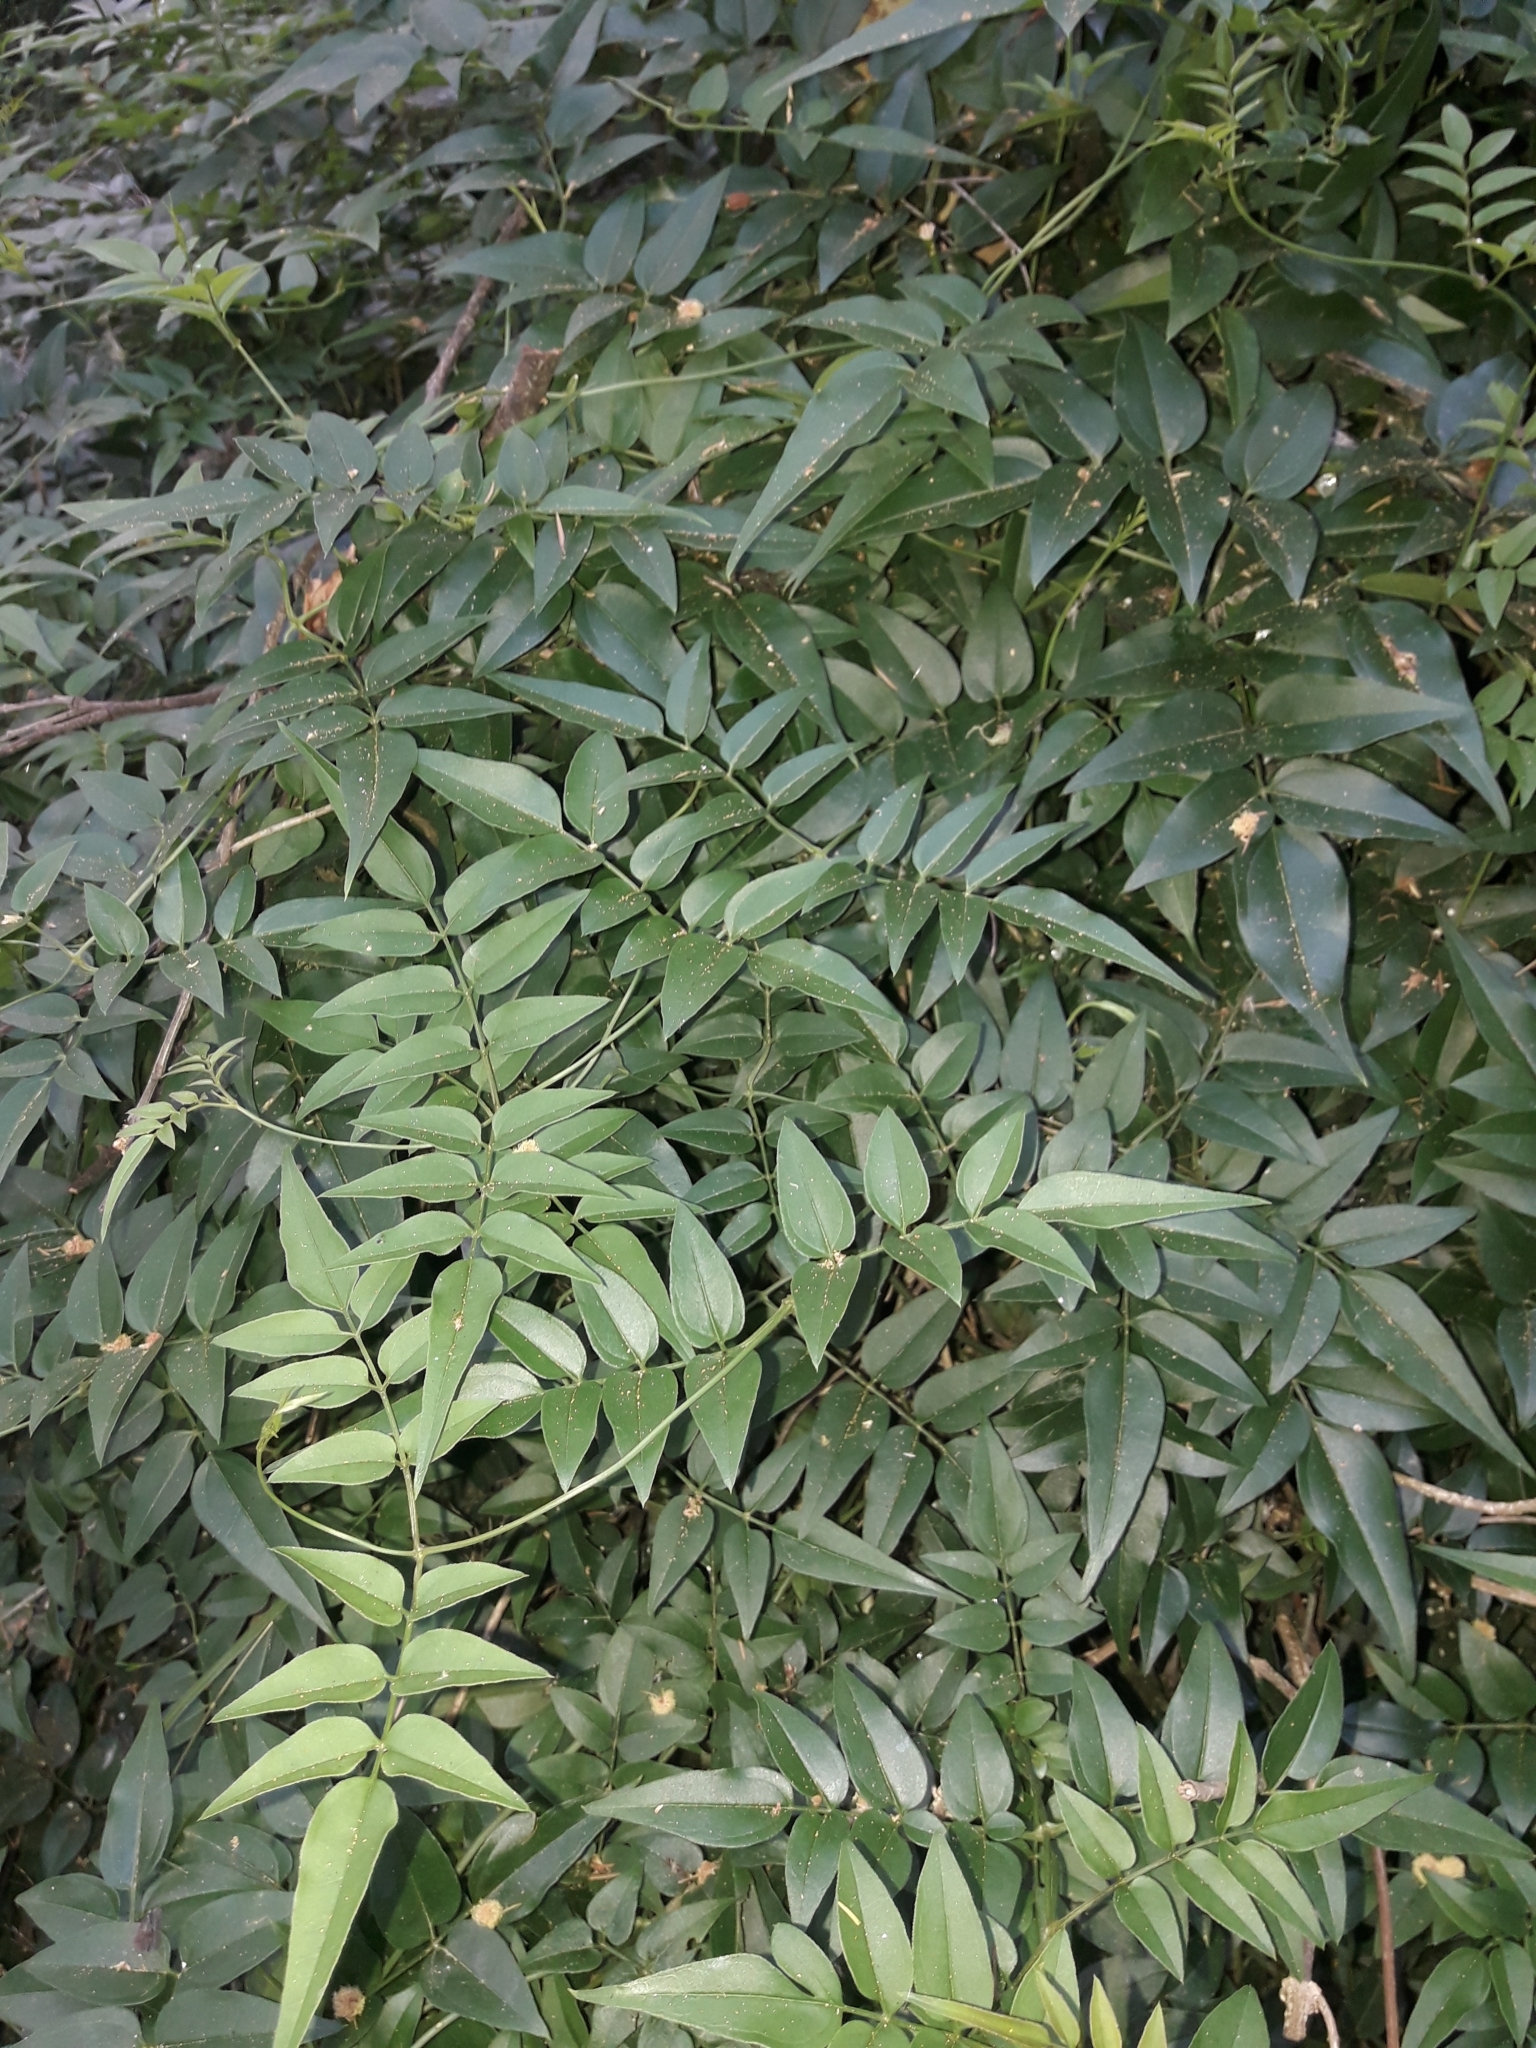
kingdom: Plantae
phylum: Tracheophyta
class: Magnoliopsida
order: Lamiales
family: Oleaceae
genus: Jasminum
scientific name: Jasminum polyanthum
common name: Pink jasmine
